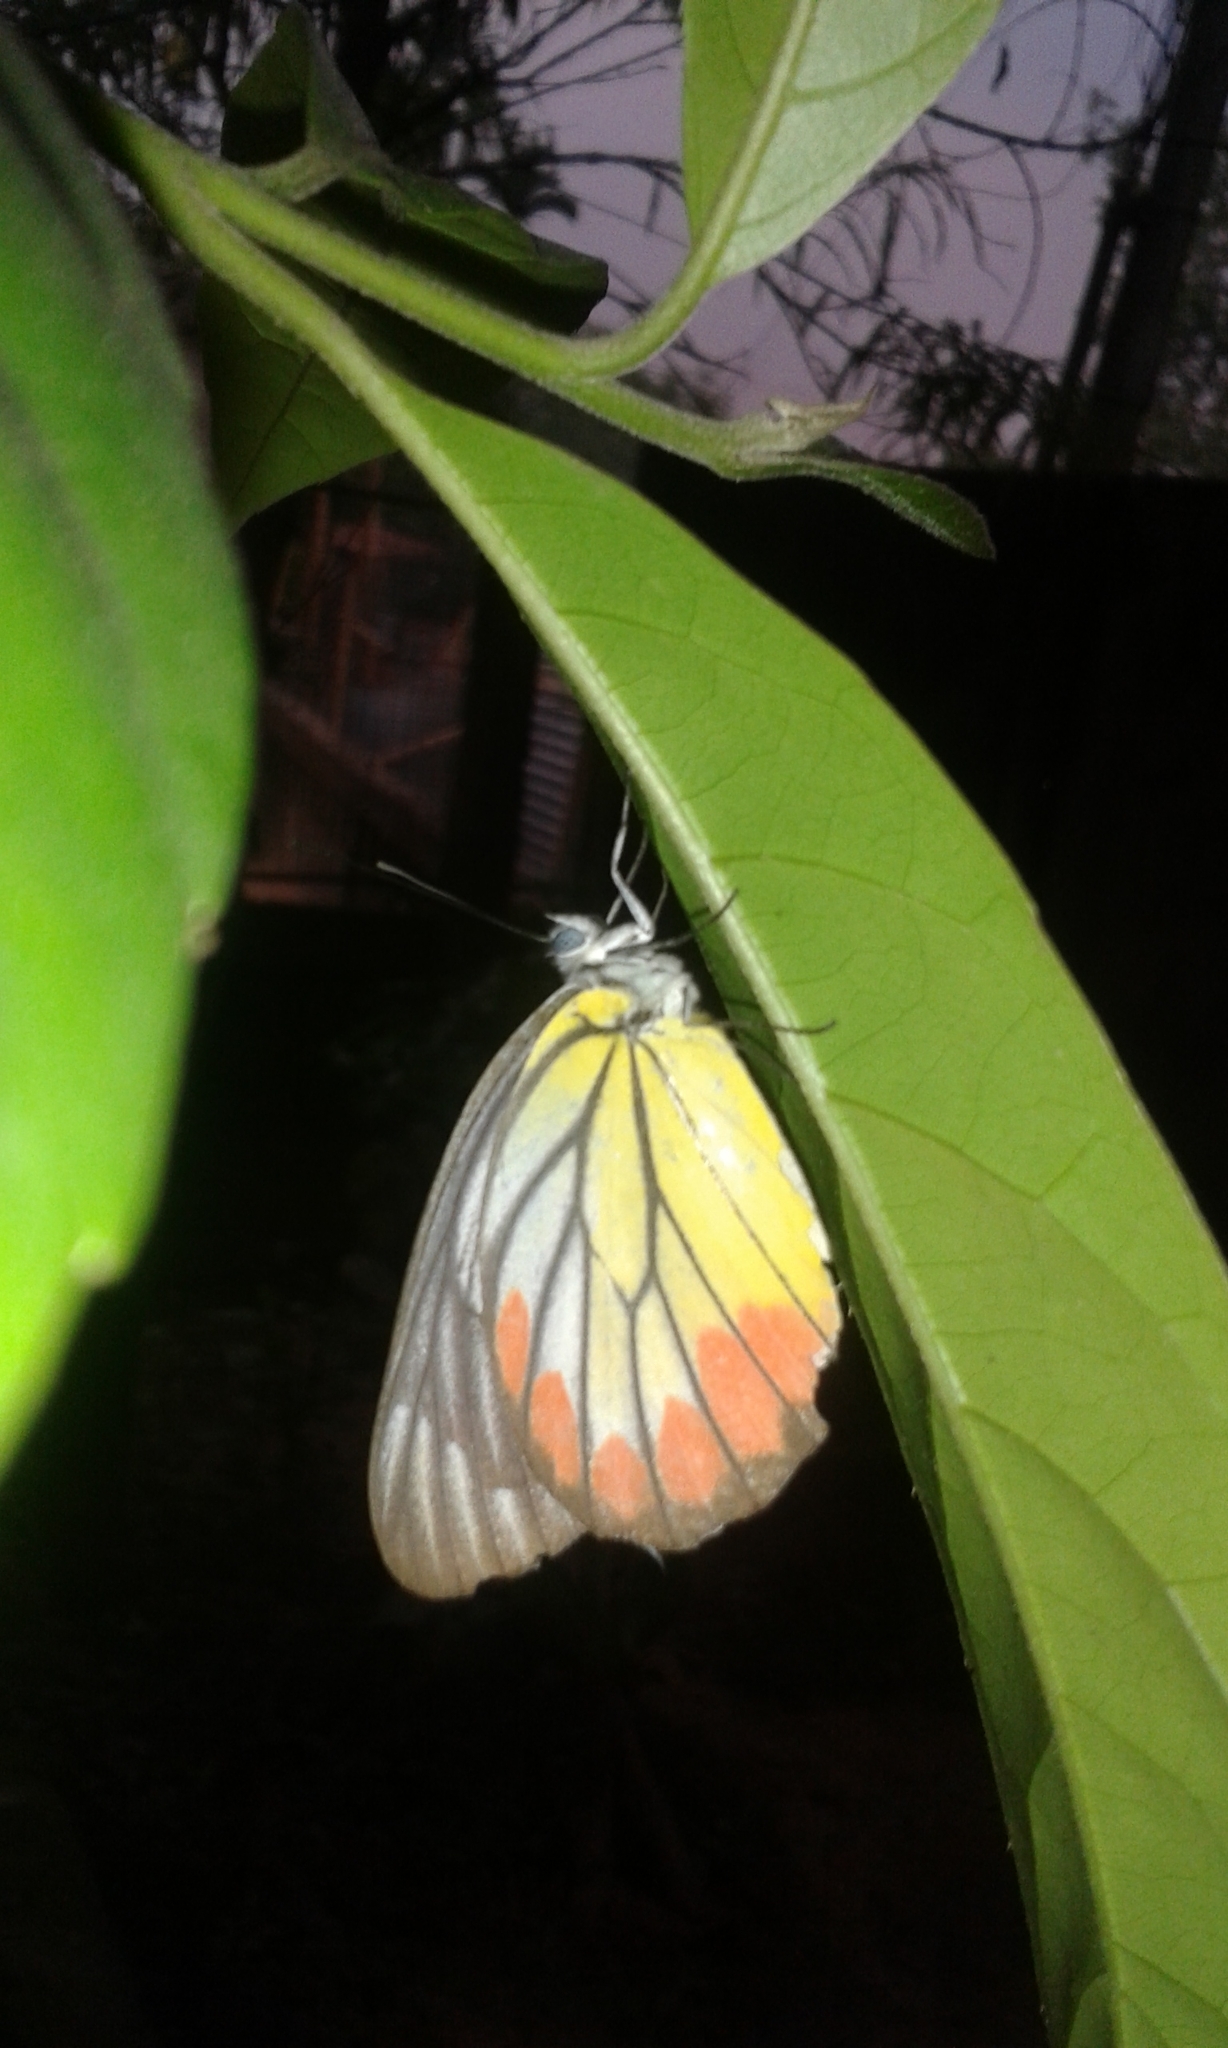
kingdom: Animalia
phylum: Arthropoda
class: Insecta
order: Lepidoptera
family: Pieridae
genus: Delias
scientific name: Delias hyparete
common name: Painted jezebel
